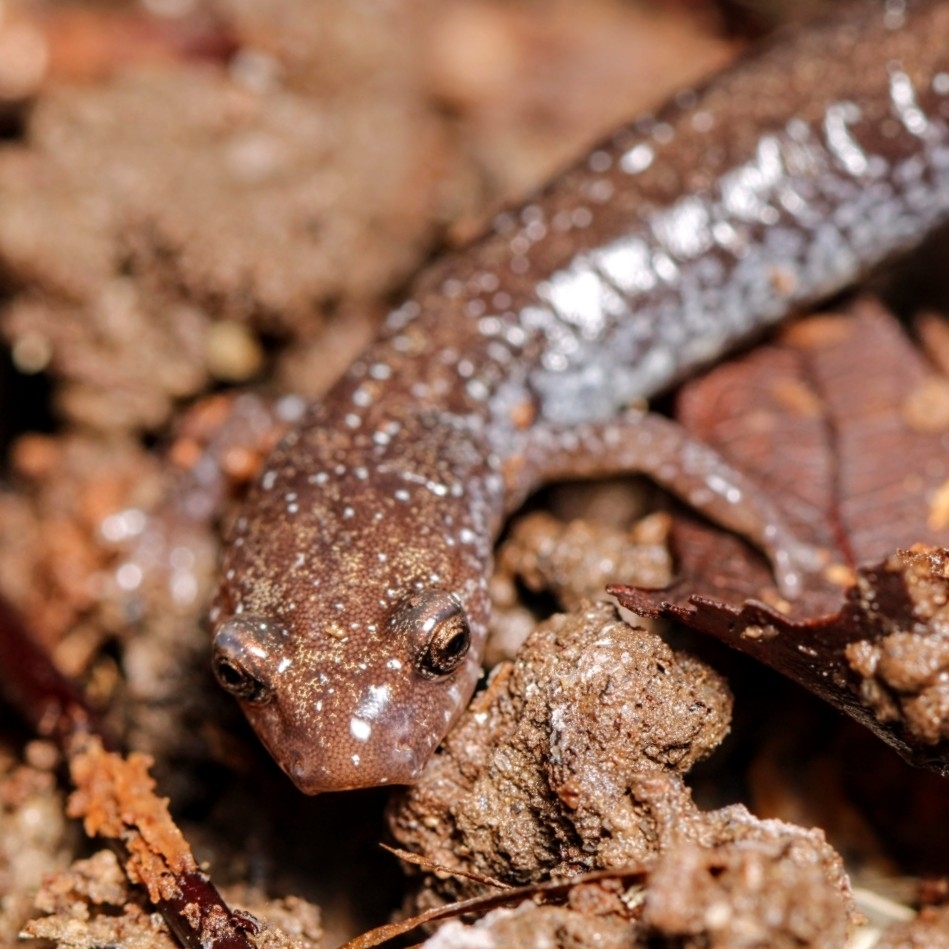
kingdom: Animalia
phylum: Chordata
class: Amphibia
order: Caudata
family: Plethodontidae
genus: Plethodon
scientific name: Plethodon cinereus
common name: Redback salamander
